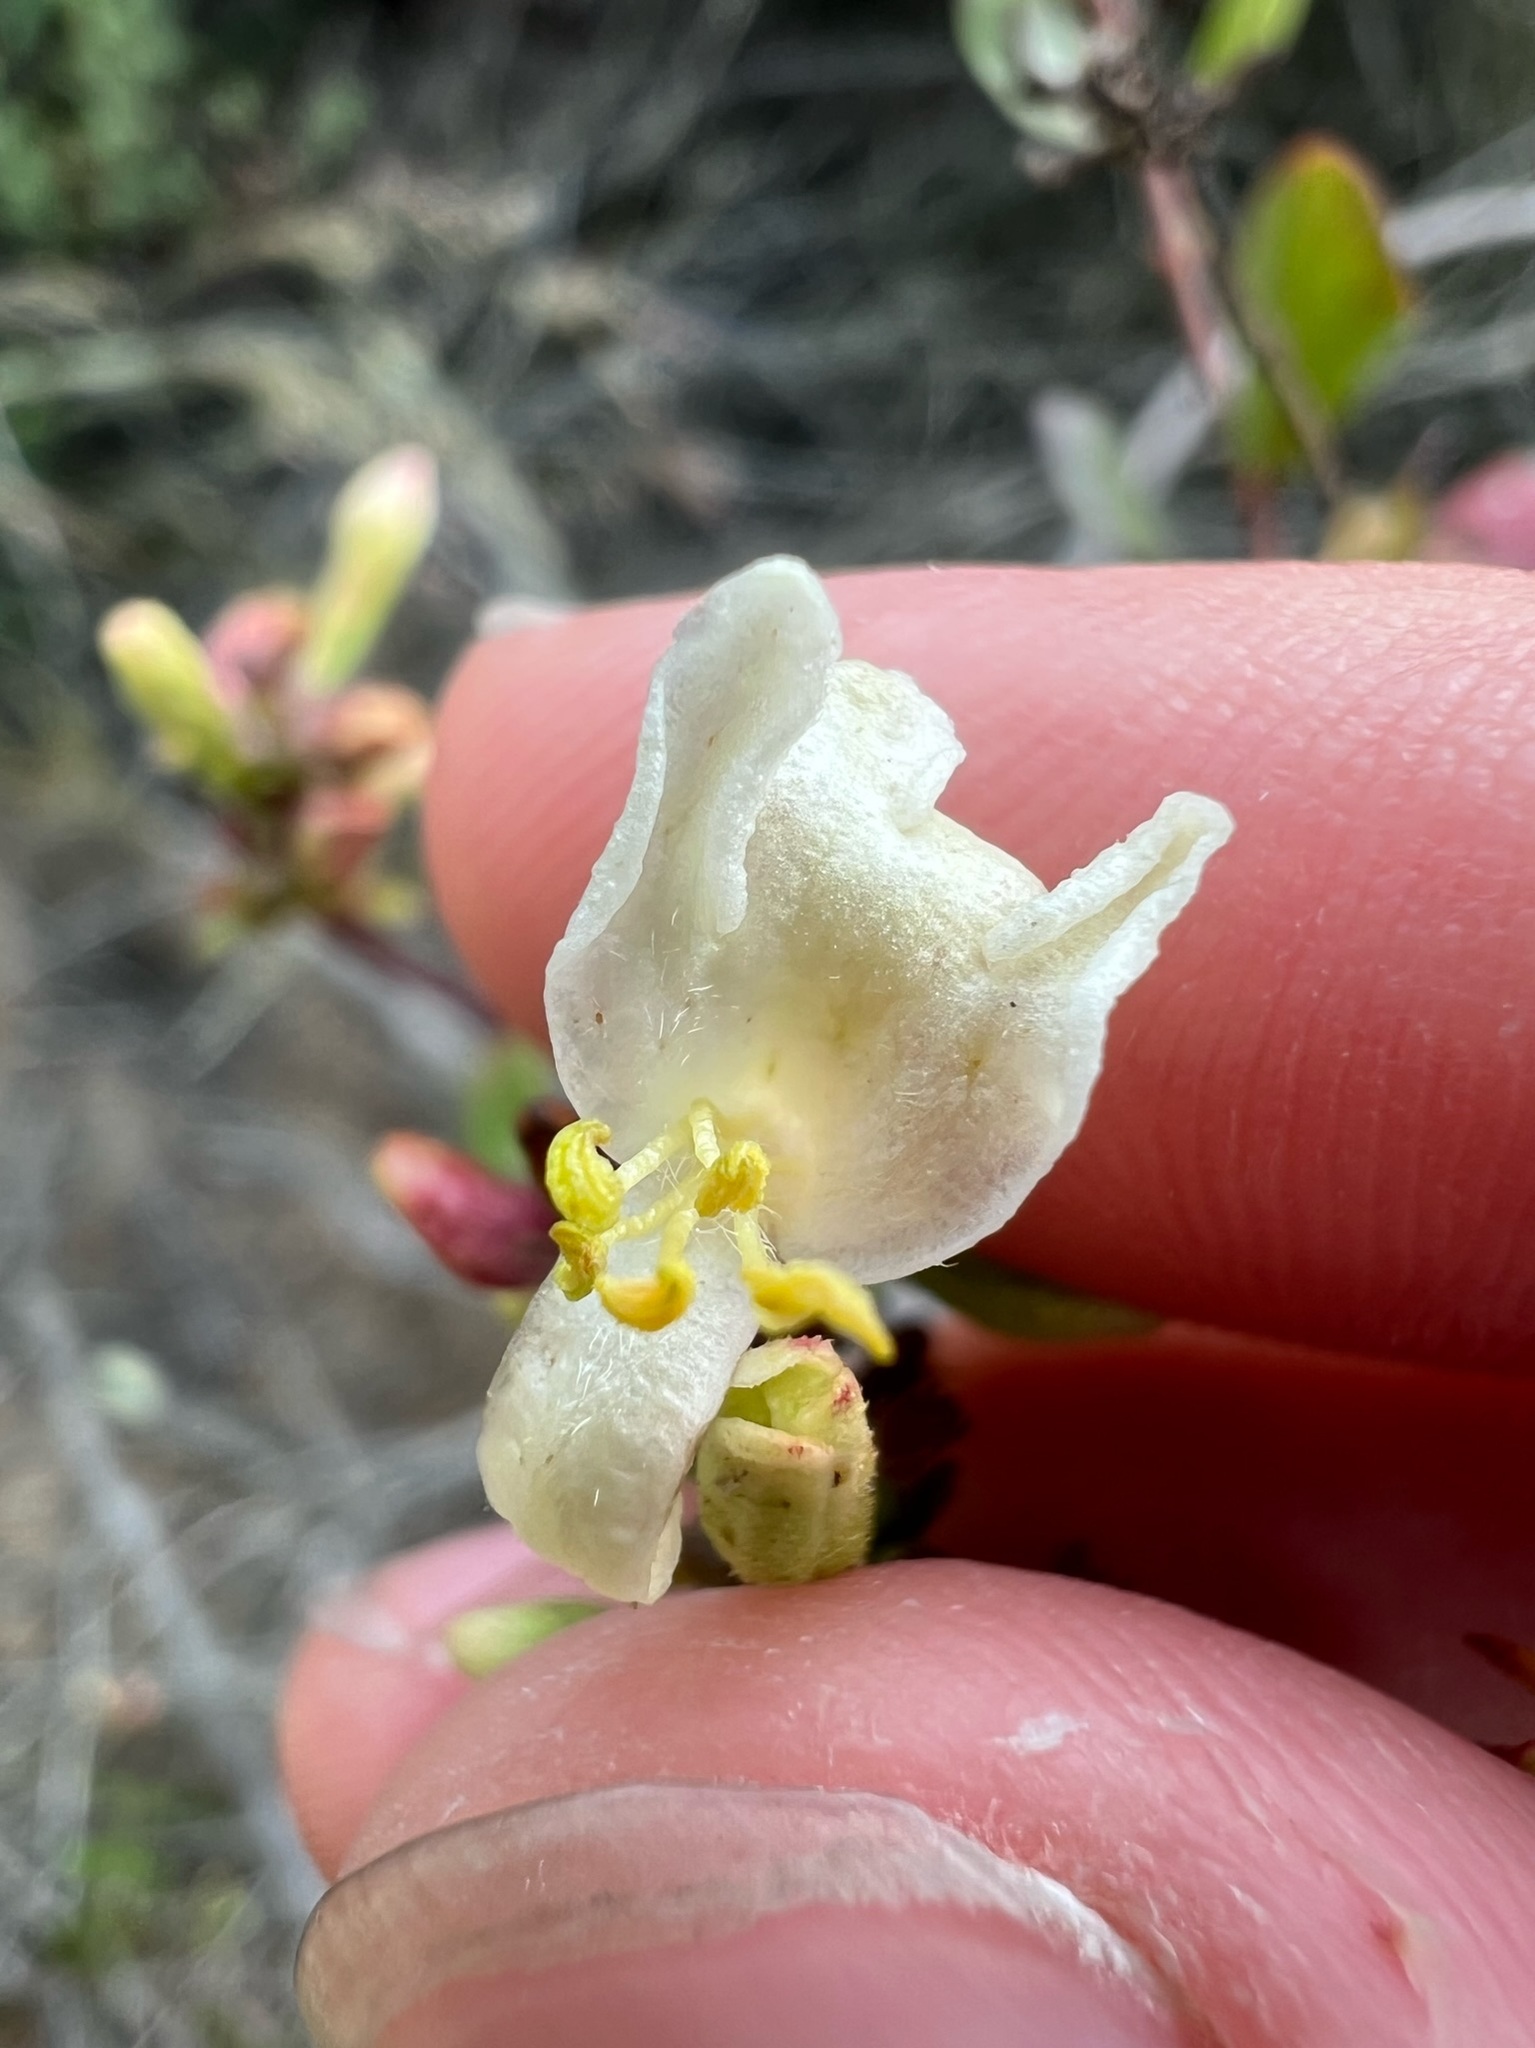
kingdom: Plantae
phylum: Tracheophyta
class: Magnoliopsida
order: Dipsacales
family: Caprifoliaceae
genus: Lonicera
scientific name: Lonicera subspicata
